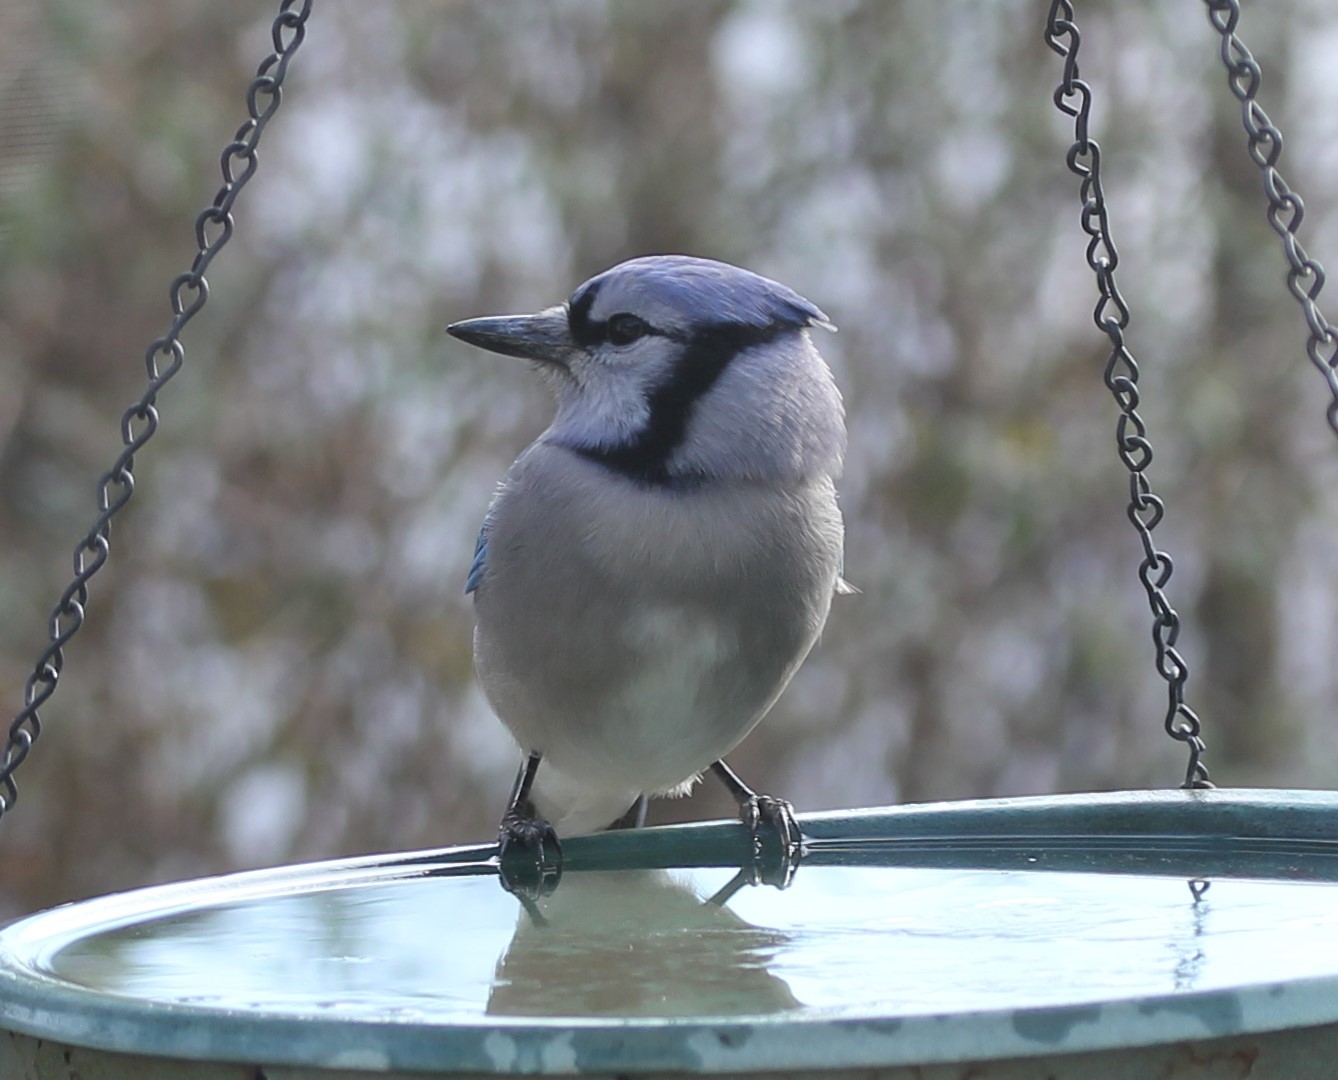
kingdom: Animalia
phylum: Chordata
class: Aves
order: Passeriformes
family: Corvidae
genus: Cyanocitta
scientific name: Cyanocitta cristata
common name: Blue jay
